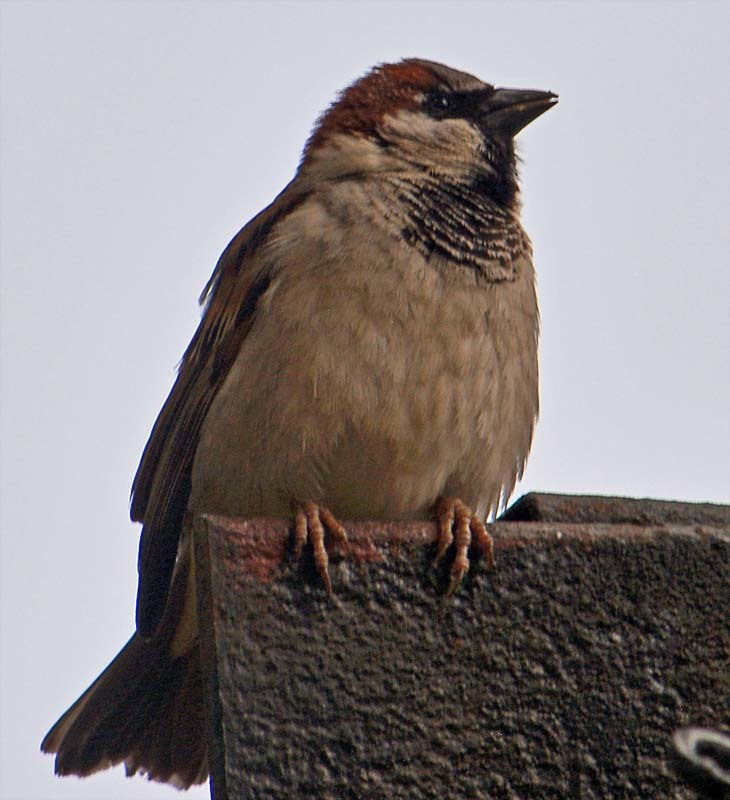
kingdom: Animalia
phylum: Chordata
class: Aves
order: Passeriformes
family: Passeridae
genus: Passer
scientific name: Passer domesticus
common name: House sparrow
